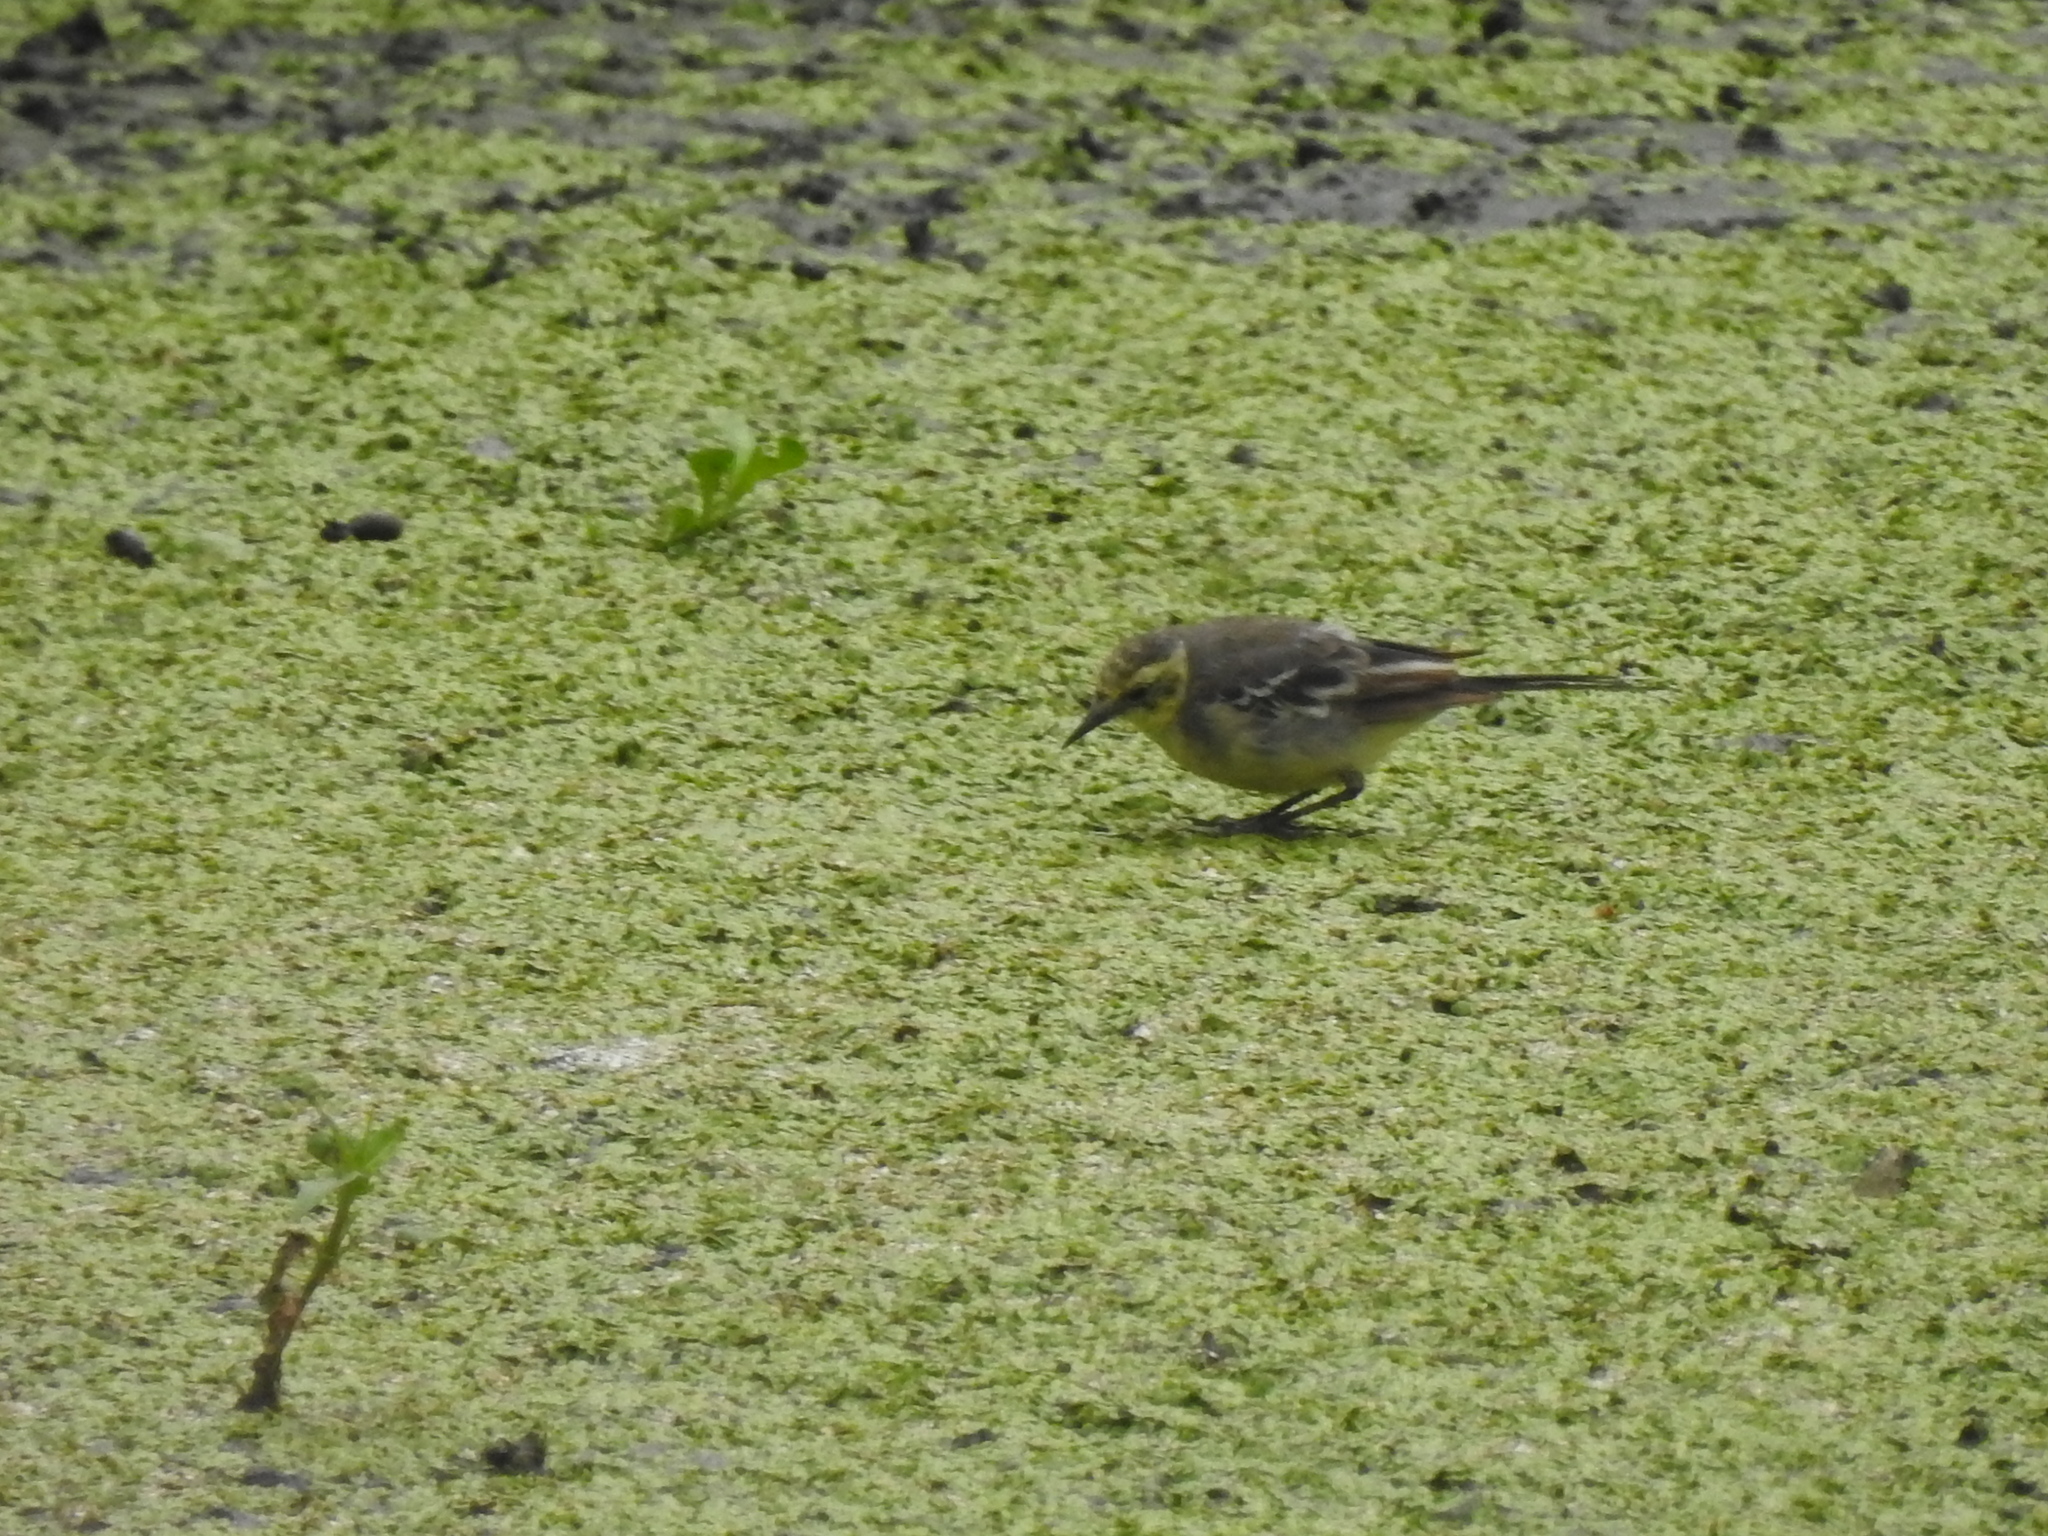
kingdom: Animalia
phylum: Chordata
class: Aves
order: Passeriformes
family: Motacillidae
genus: Motacilla
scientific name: Motacilla citreola
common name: Citrine wagtail
